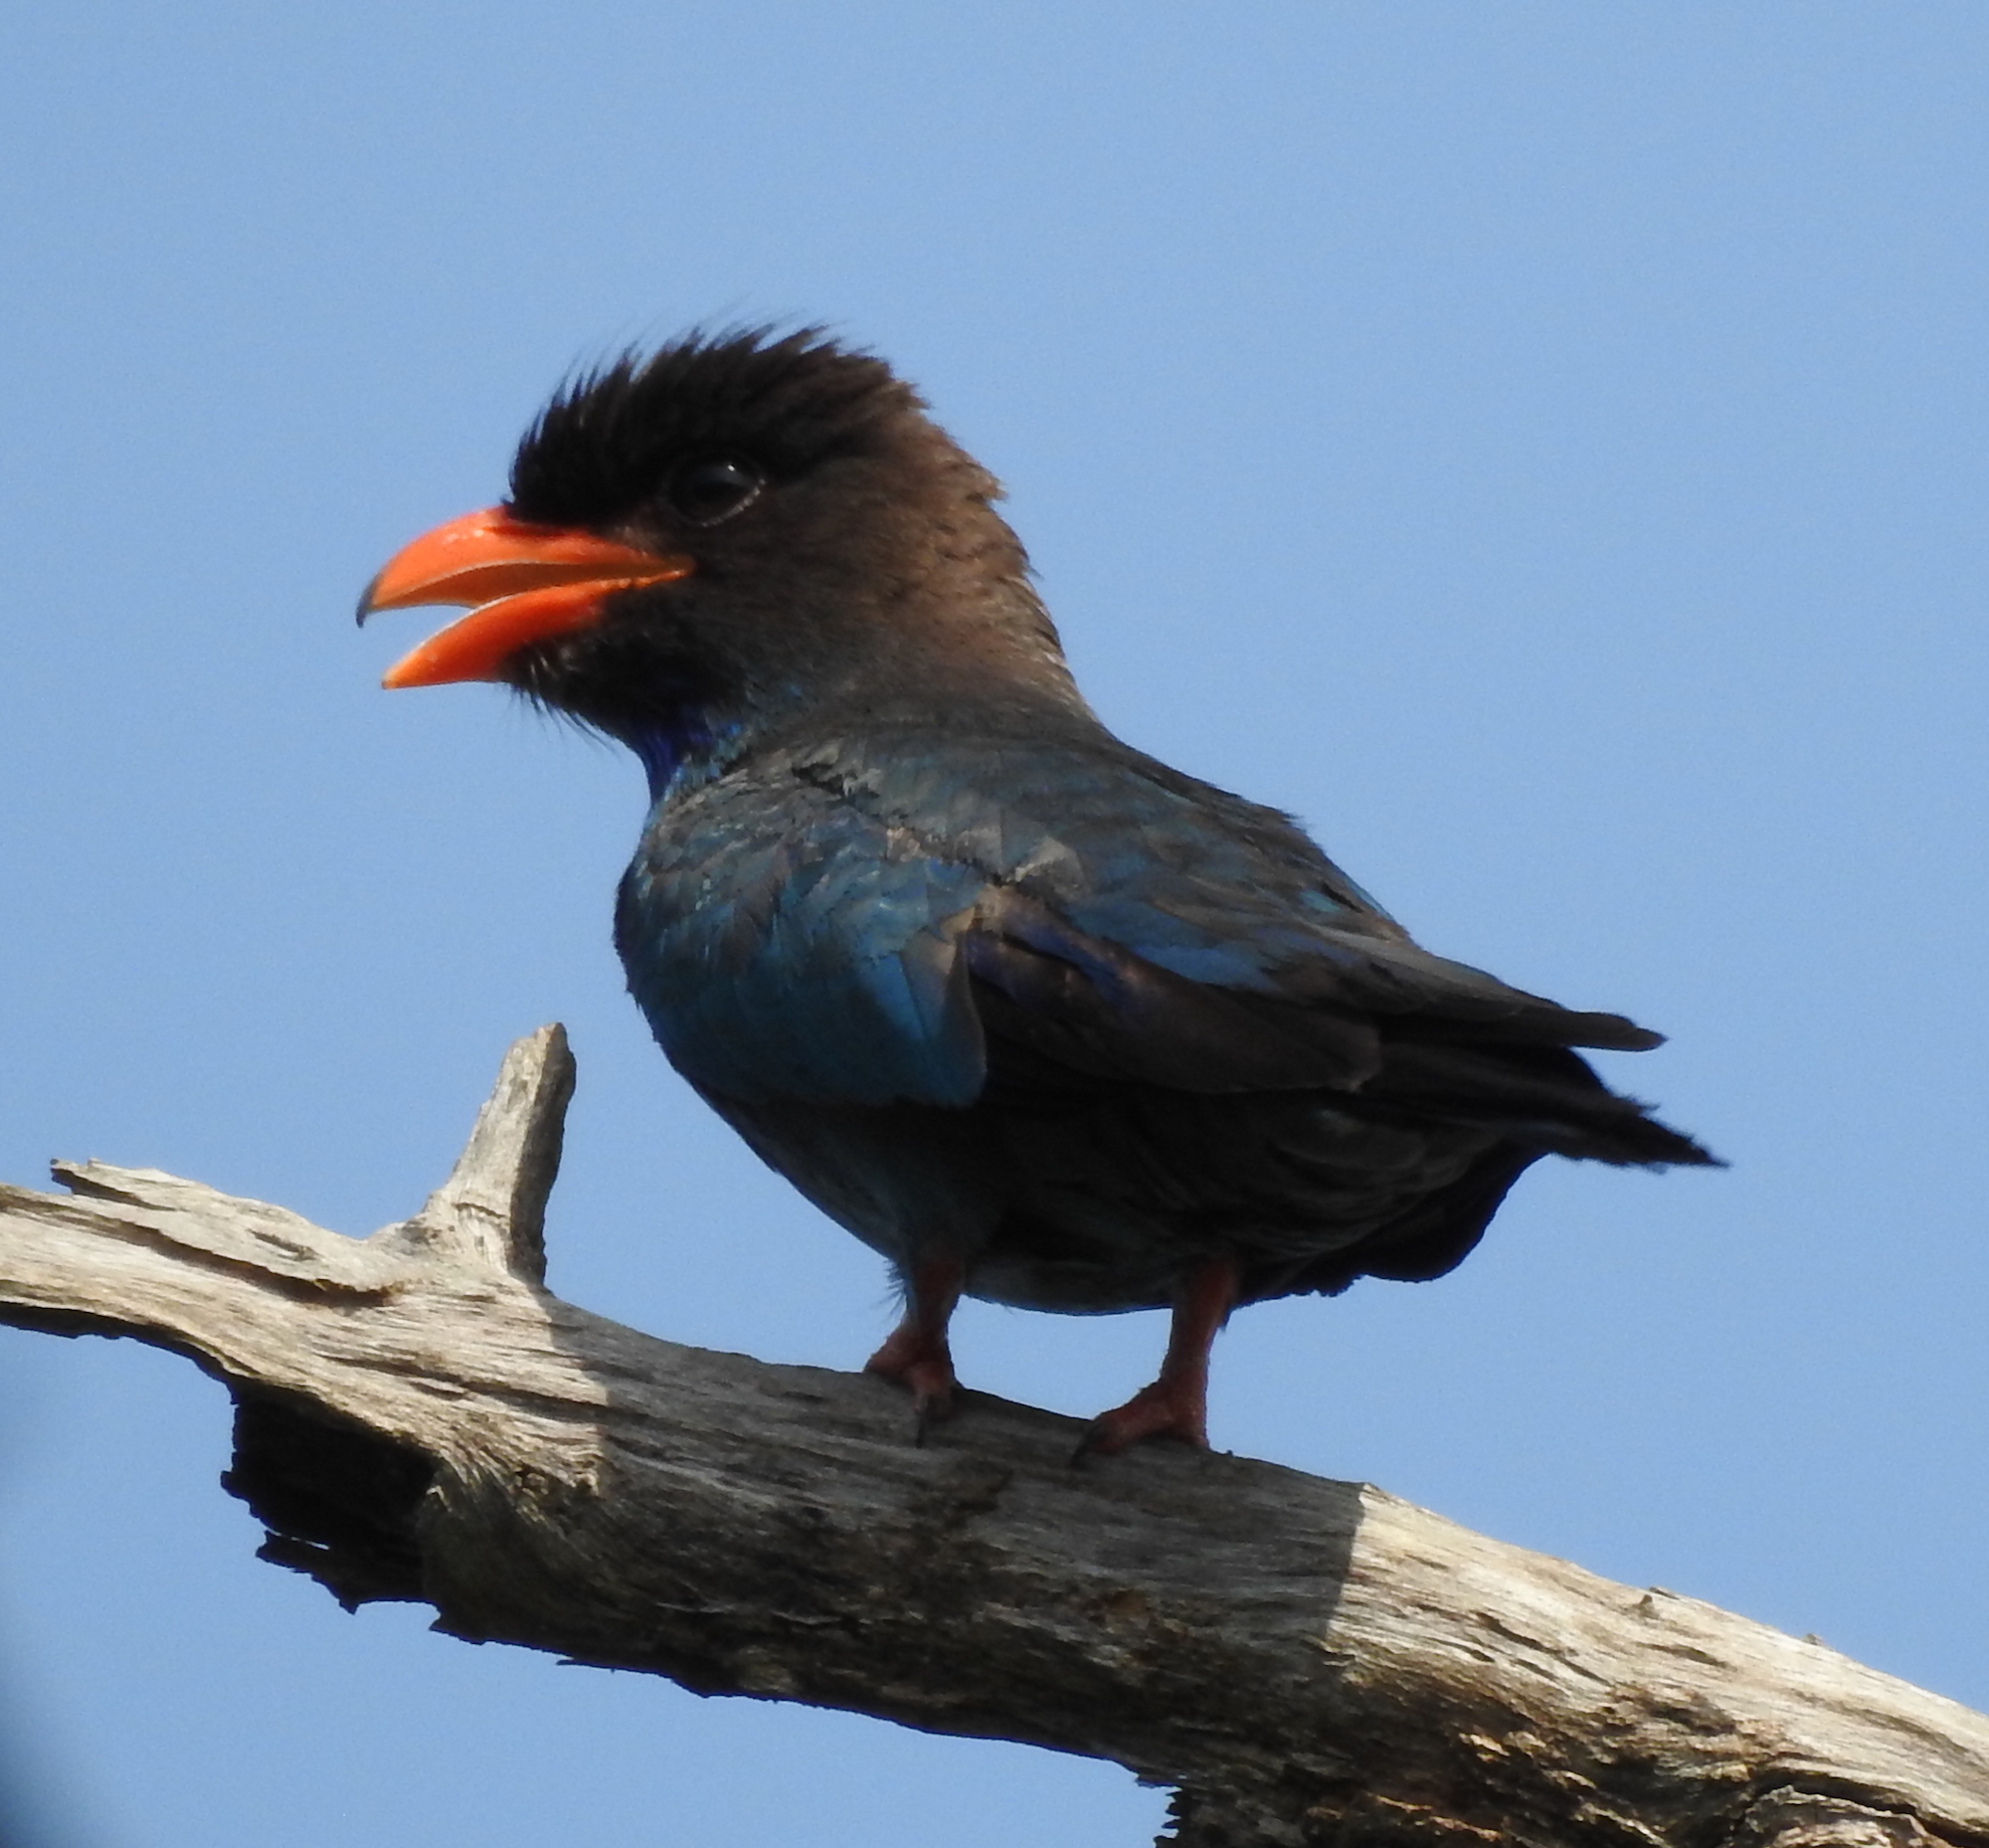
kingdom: Animalia
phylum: Chordata
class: Aves
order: Coraciiformes
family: Coraciidae
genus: Eurystomus
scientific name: Eurystomus orientalis
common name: Oriental dollarbird
